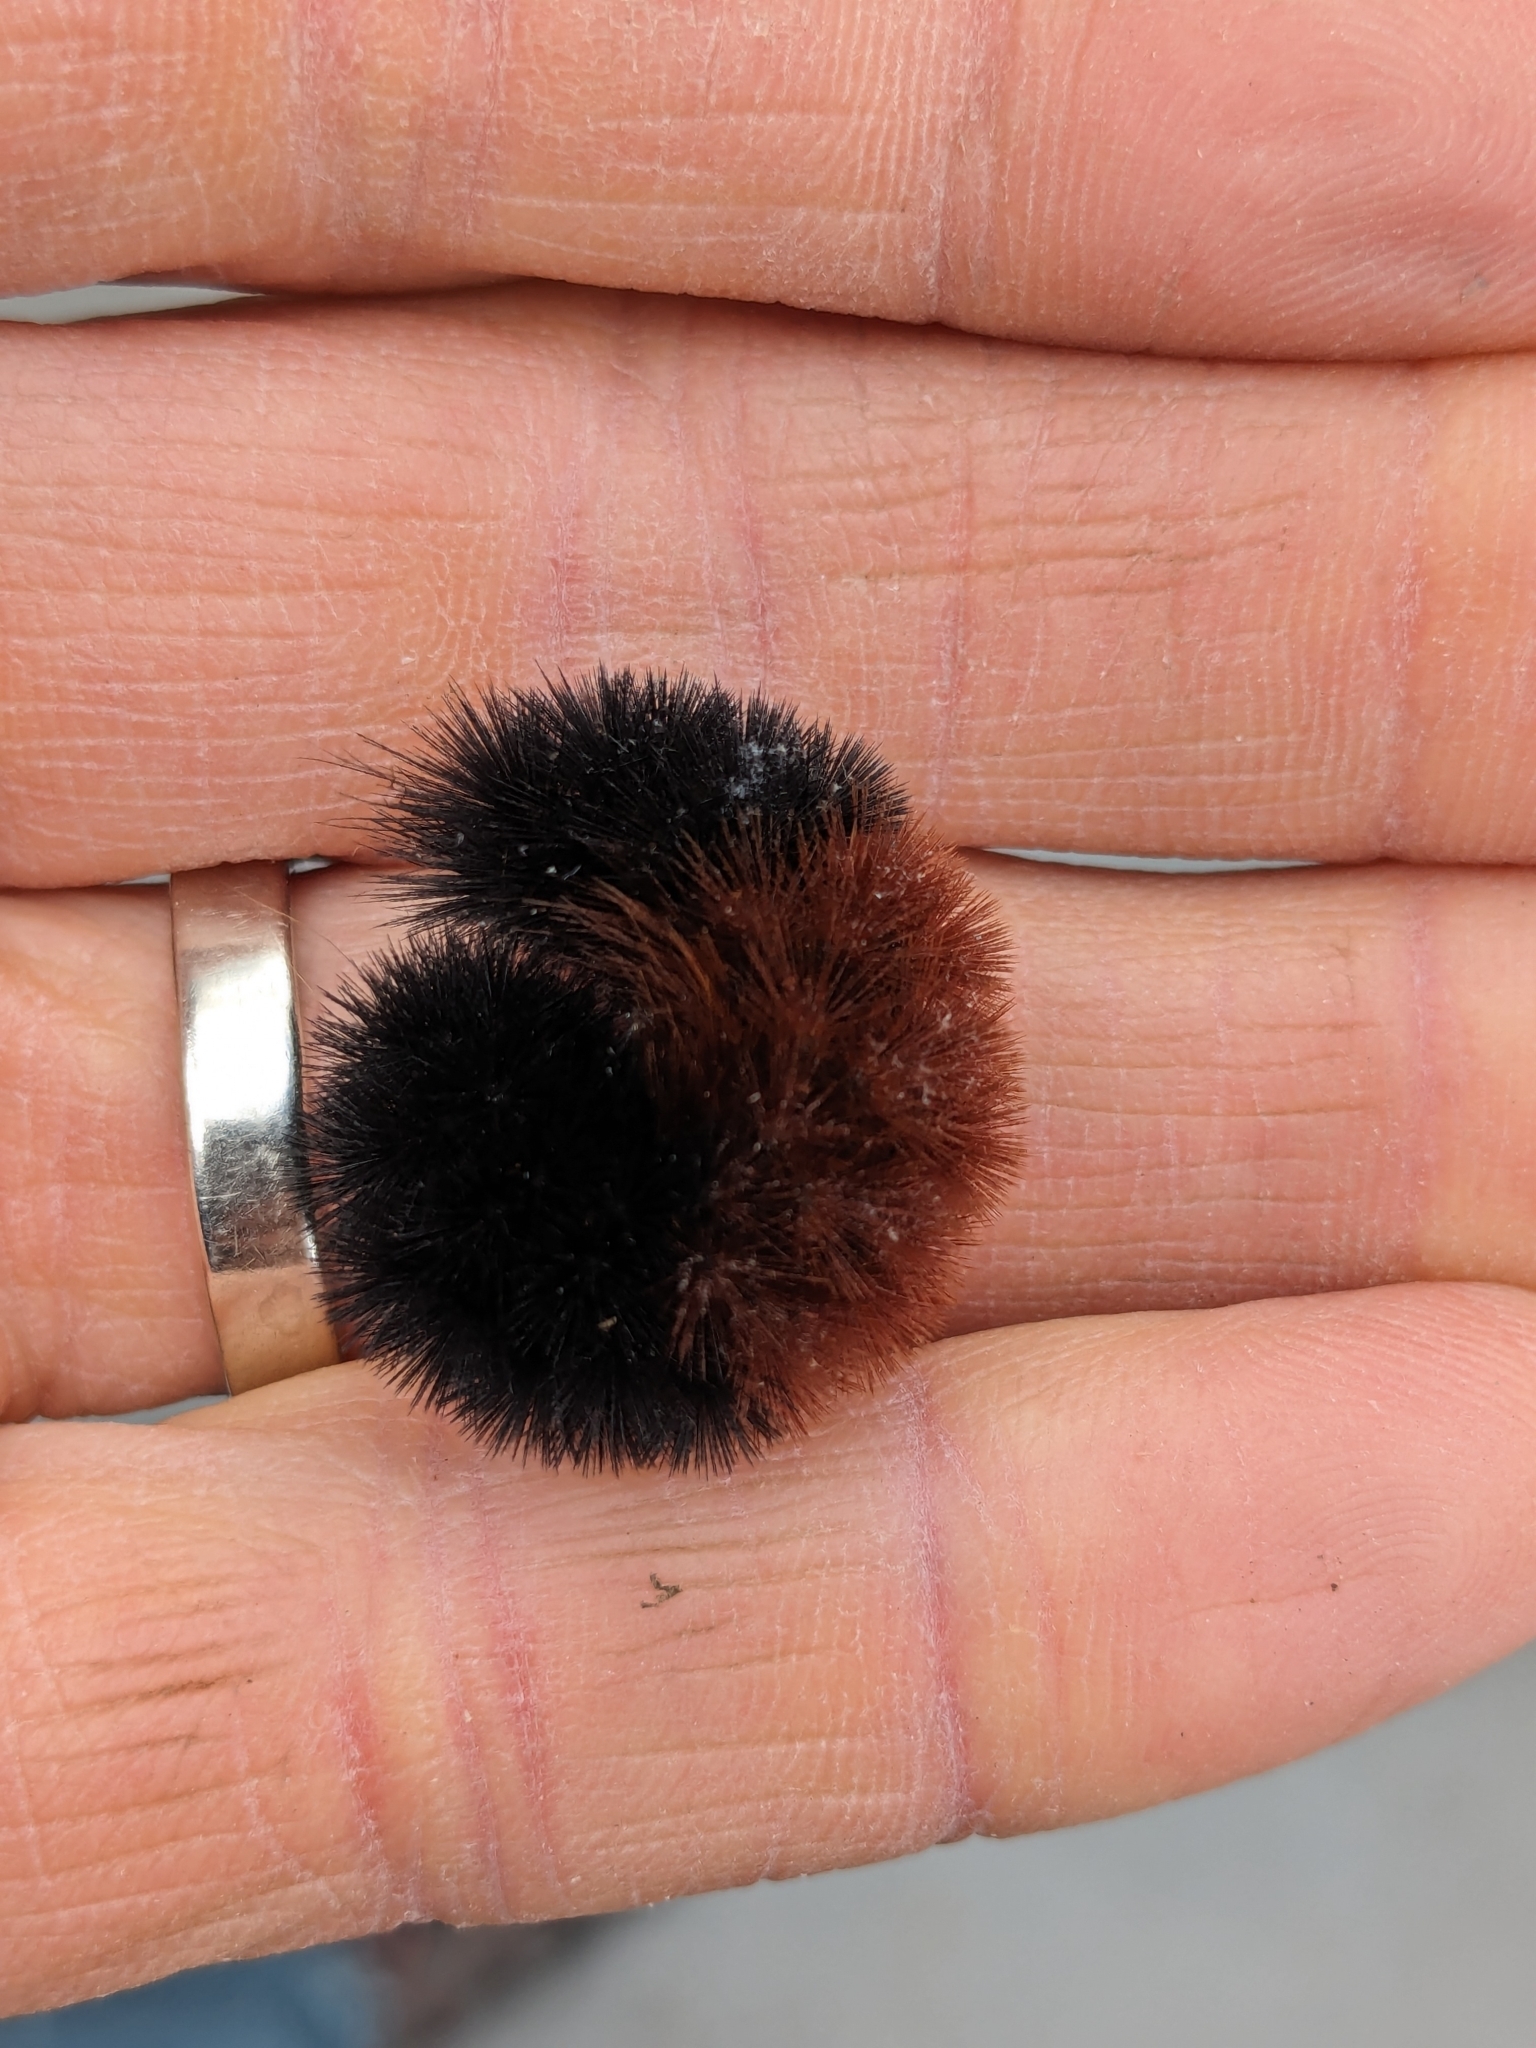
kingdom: Animalia
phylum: Arthropoda
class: Insecta
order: Lepidoptera
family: Erebidae
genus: Pyrrharctia
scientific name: Pyrrharctia isabella
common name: Isabella tiger moth
